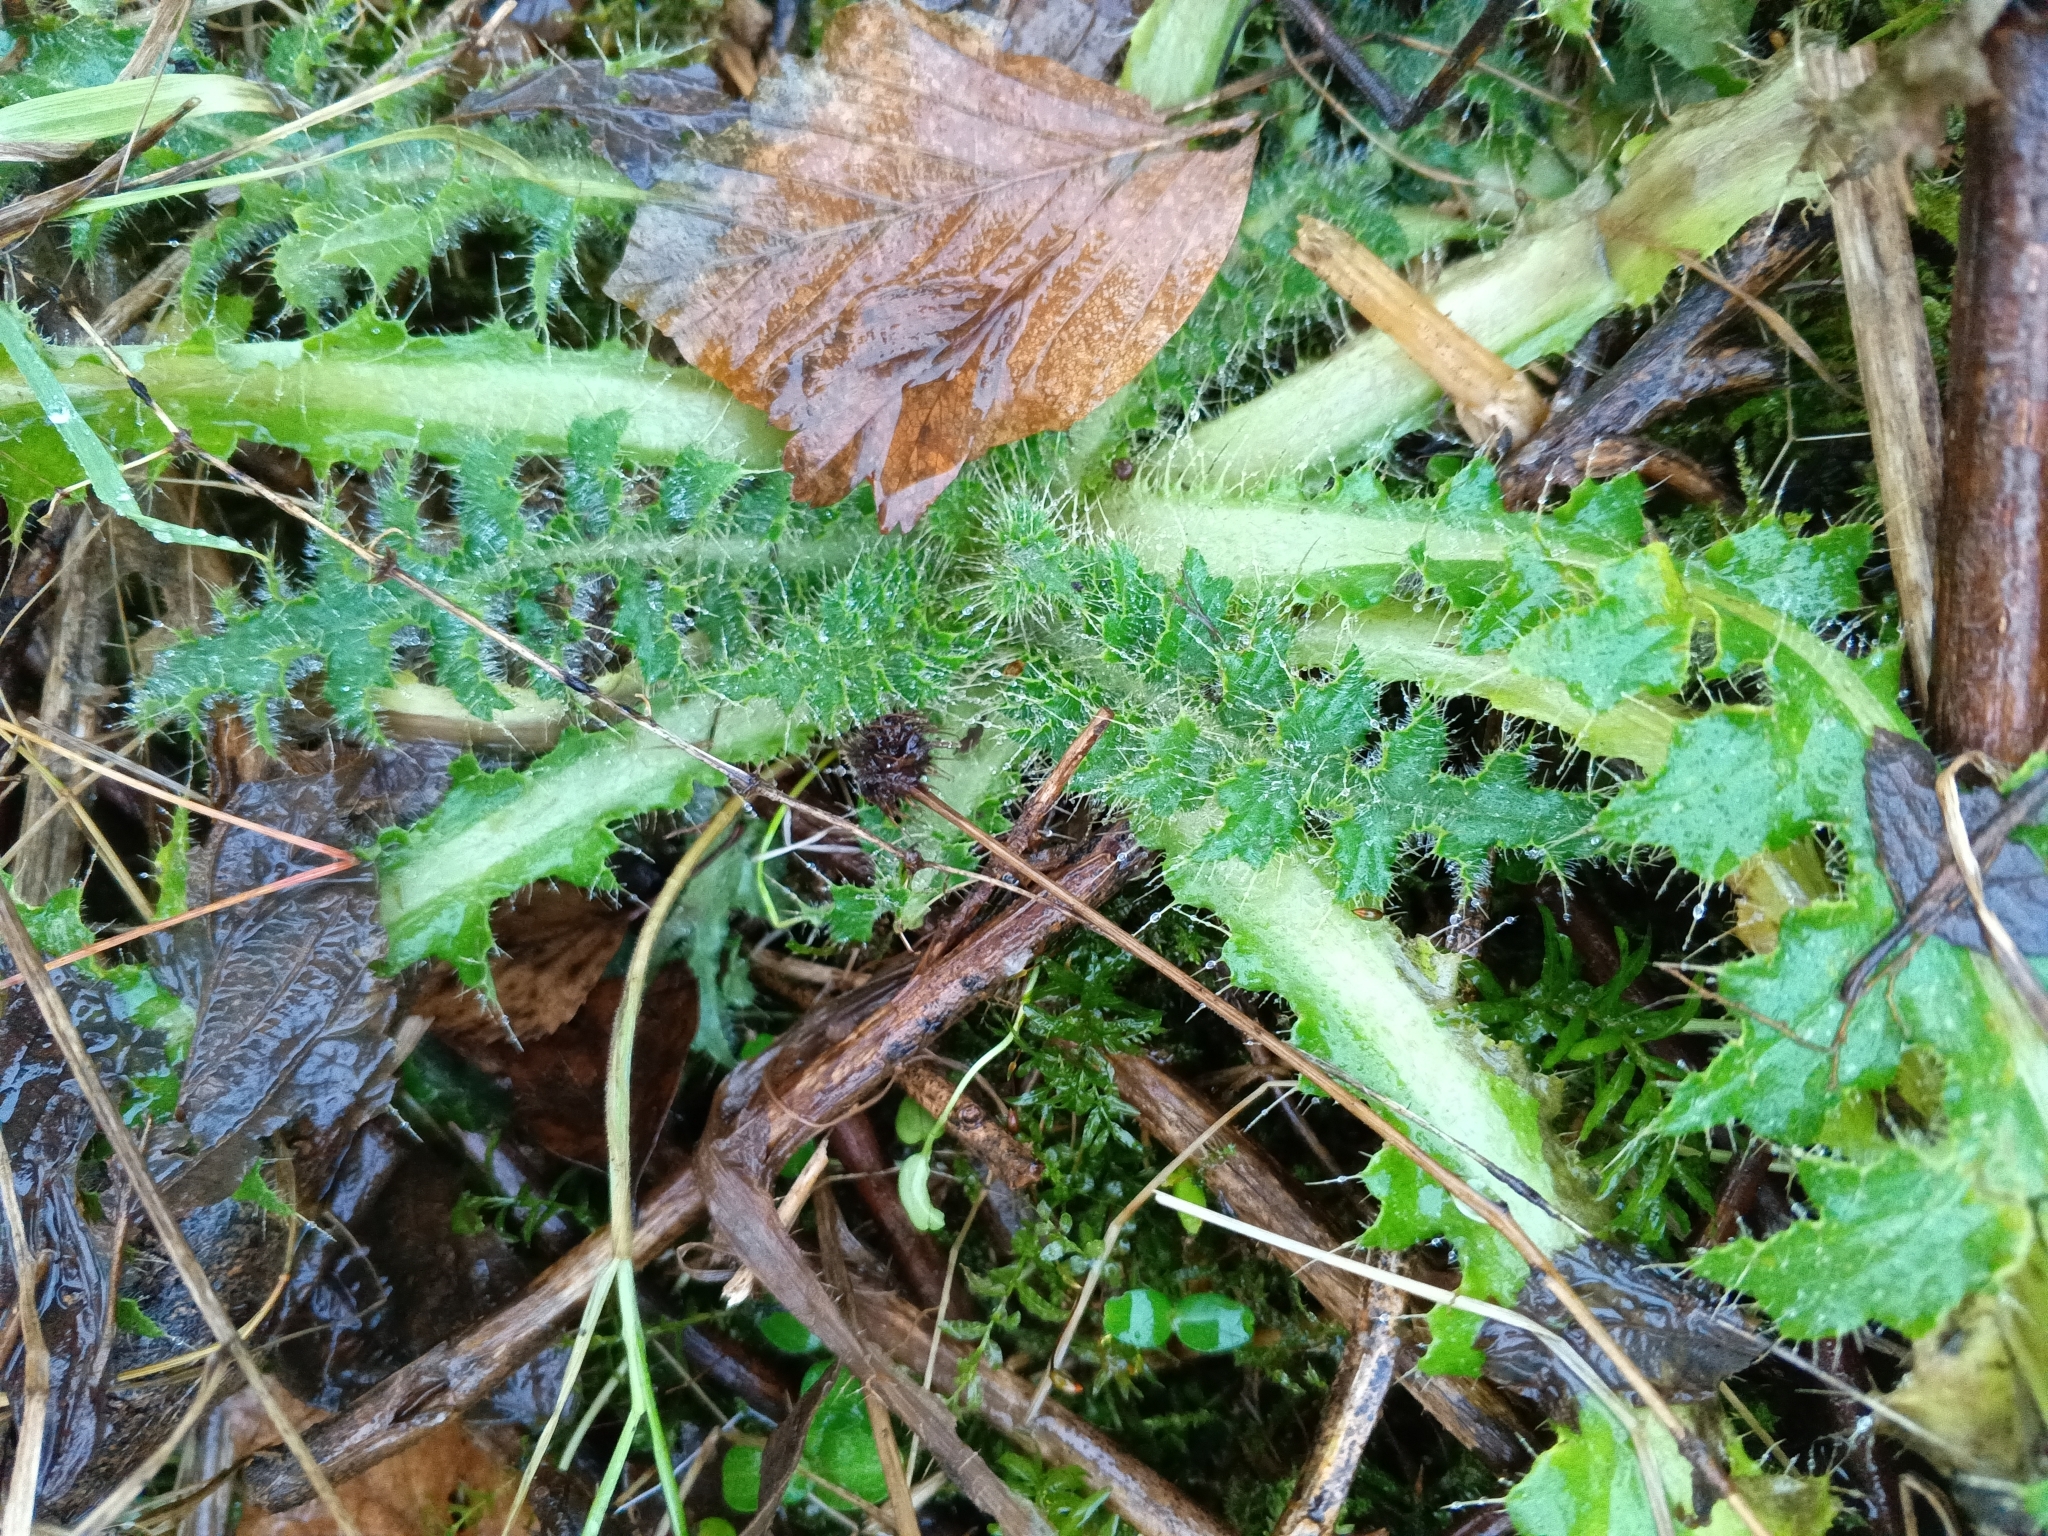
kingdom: Plantae
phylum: Tracheophyta
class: Magnoliopsida
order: Asterales
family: Asteraceae
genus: Cirsium
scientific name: Cirsium palustre
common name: Marsh thistle
